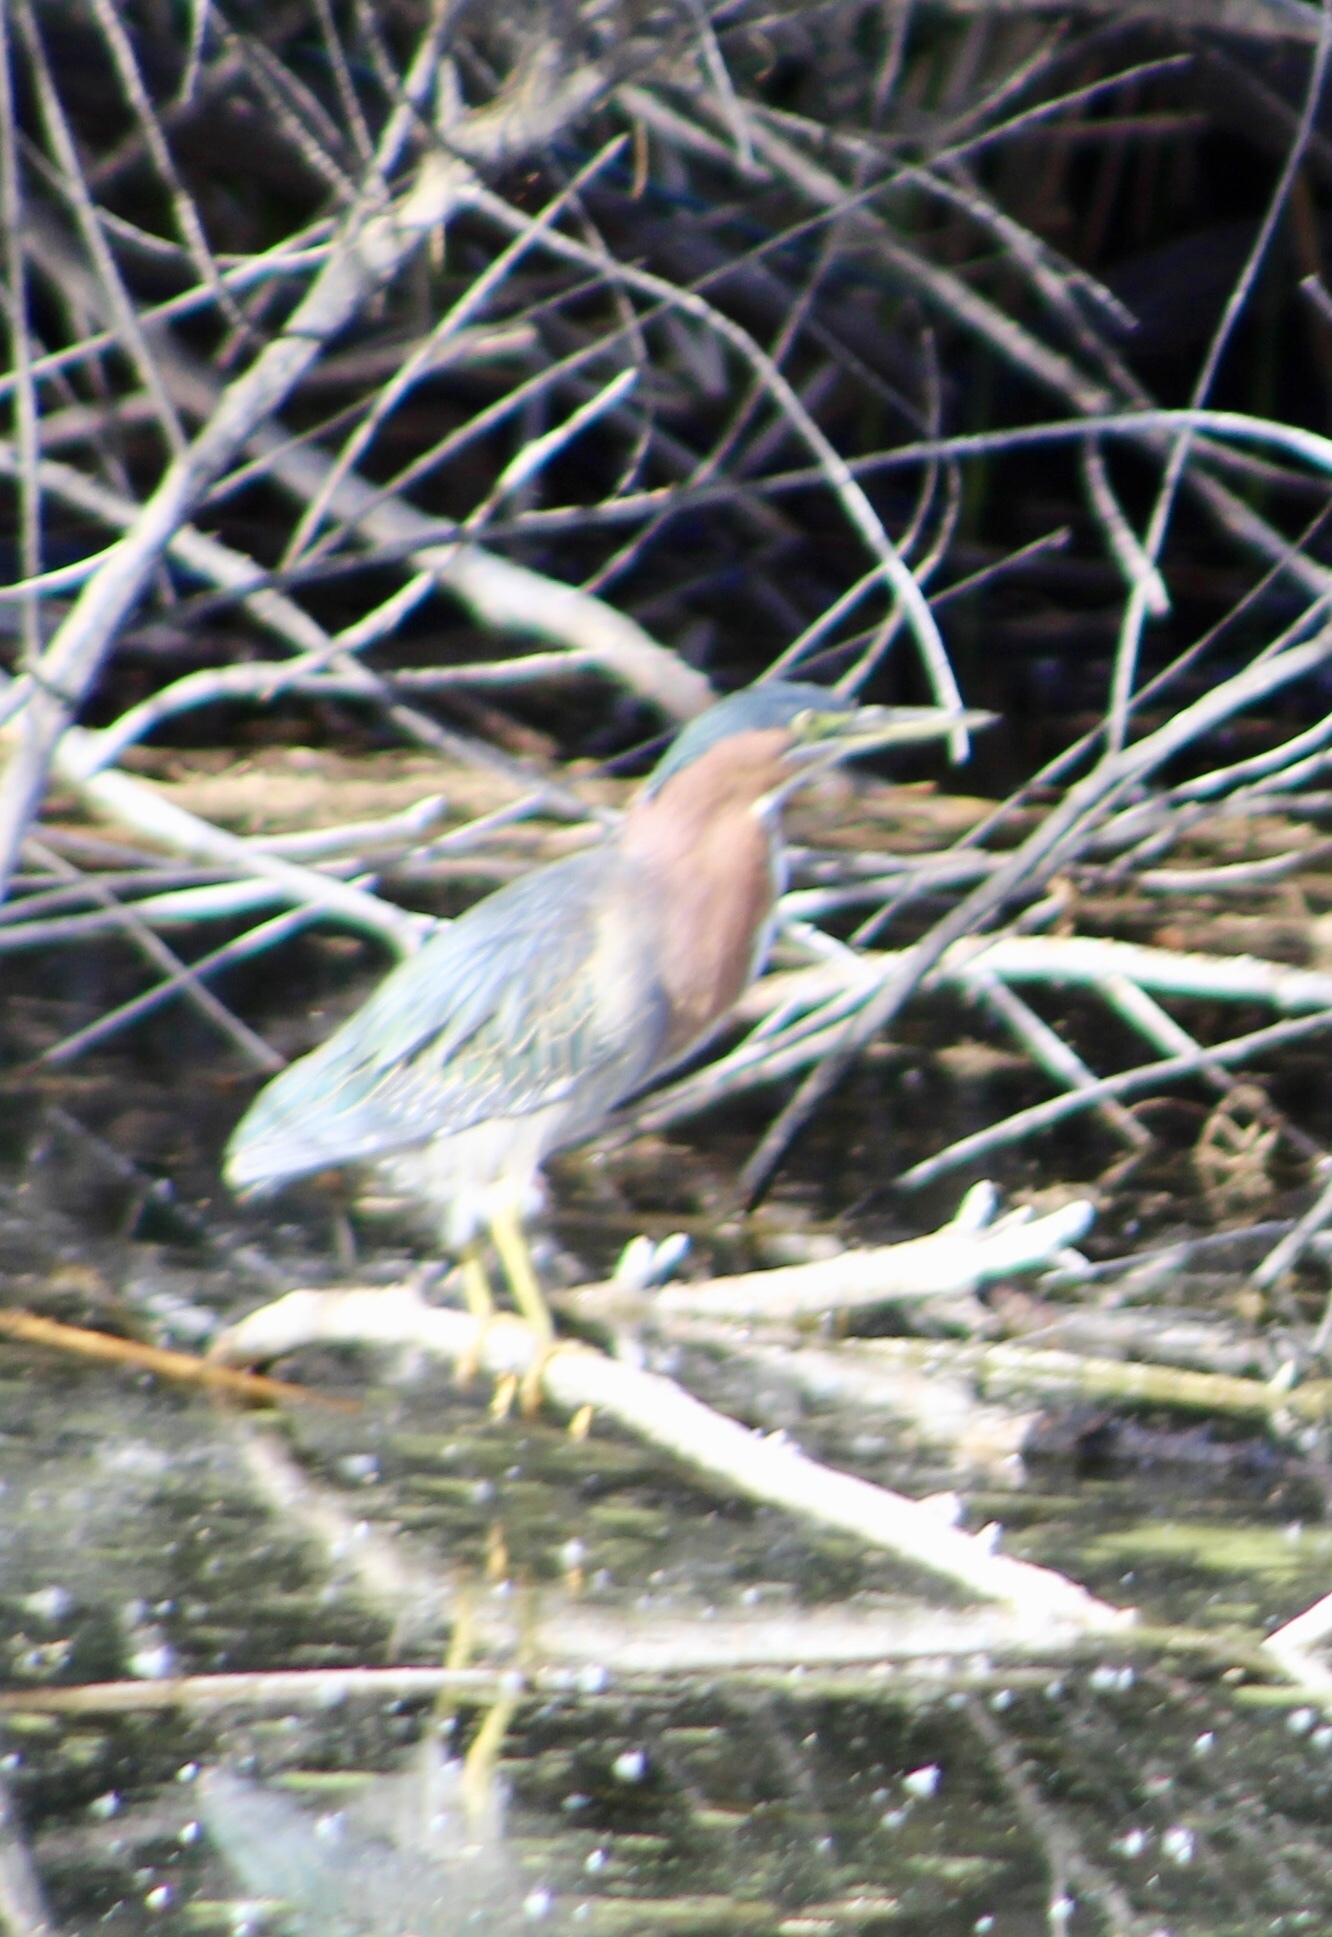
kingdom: Animalia
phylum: Chordata
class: Aves
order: Pelecaniformes
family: Ardeidae
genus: Butorides
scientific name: Butorides virescens
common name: Green heron
